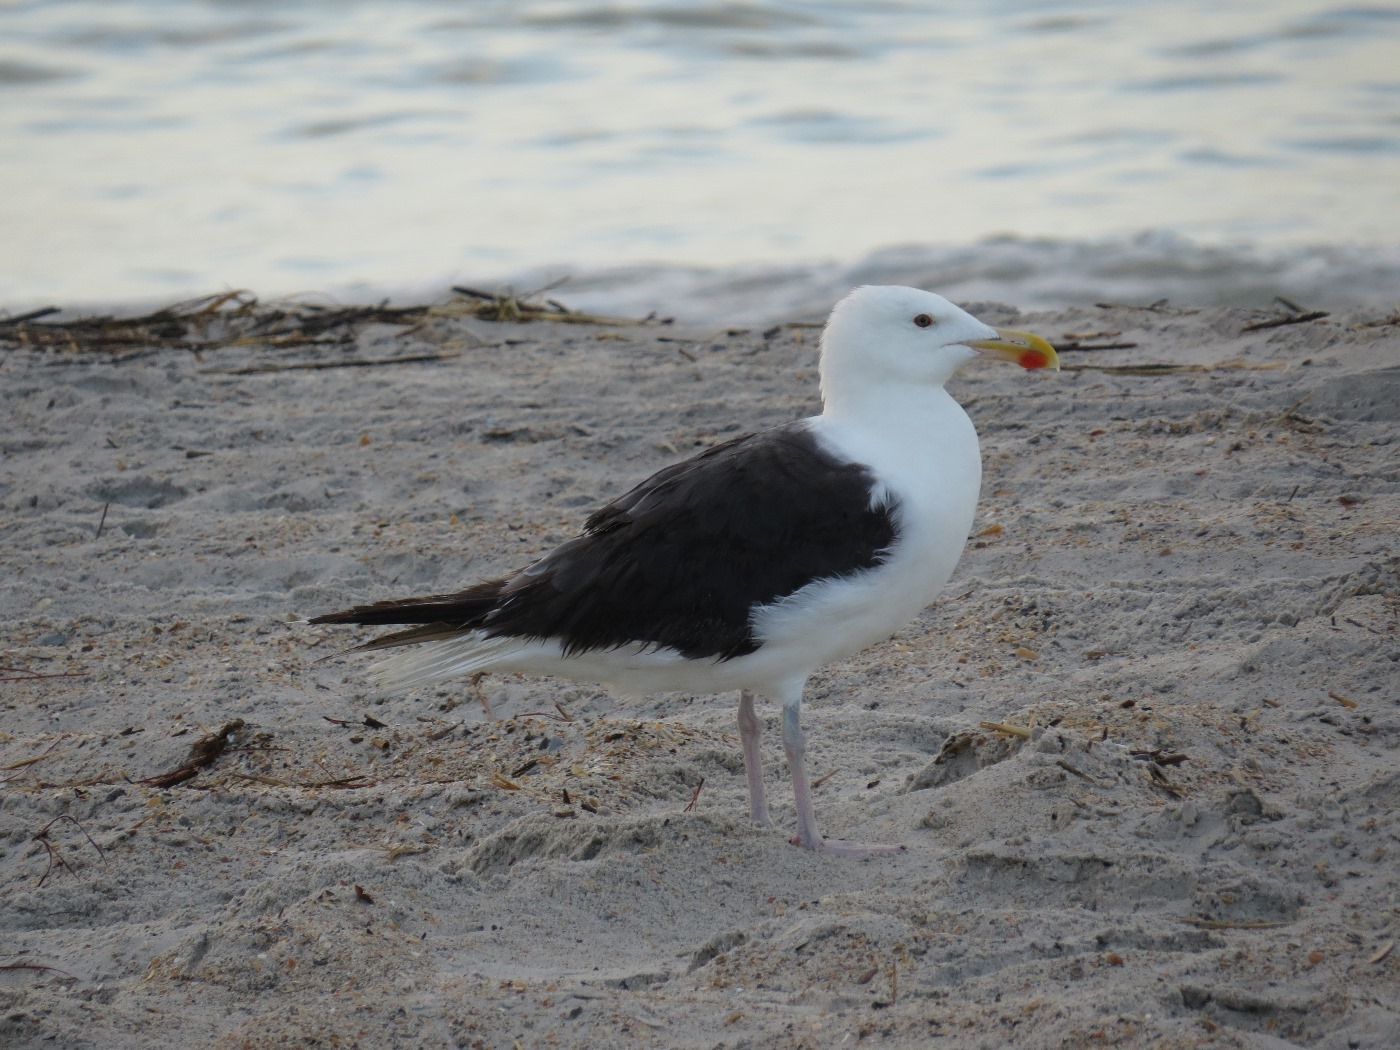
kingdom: Animalia
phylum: Chordata
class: Aves
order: Charadriiformes
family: Laridae
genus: Larus
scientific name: Larus marinus
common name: Great black-backed gull
